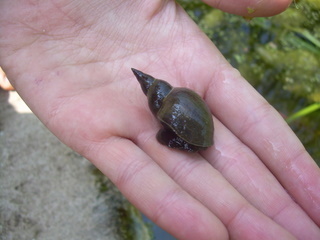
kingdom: Animalia
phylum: Mollusca
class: Gastropoda
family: Lymnaeidae
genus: Lymnaea
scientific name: Lymnaea stagnalis
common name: Great pond snail
